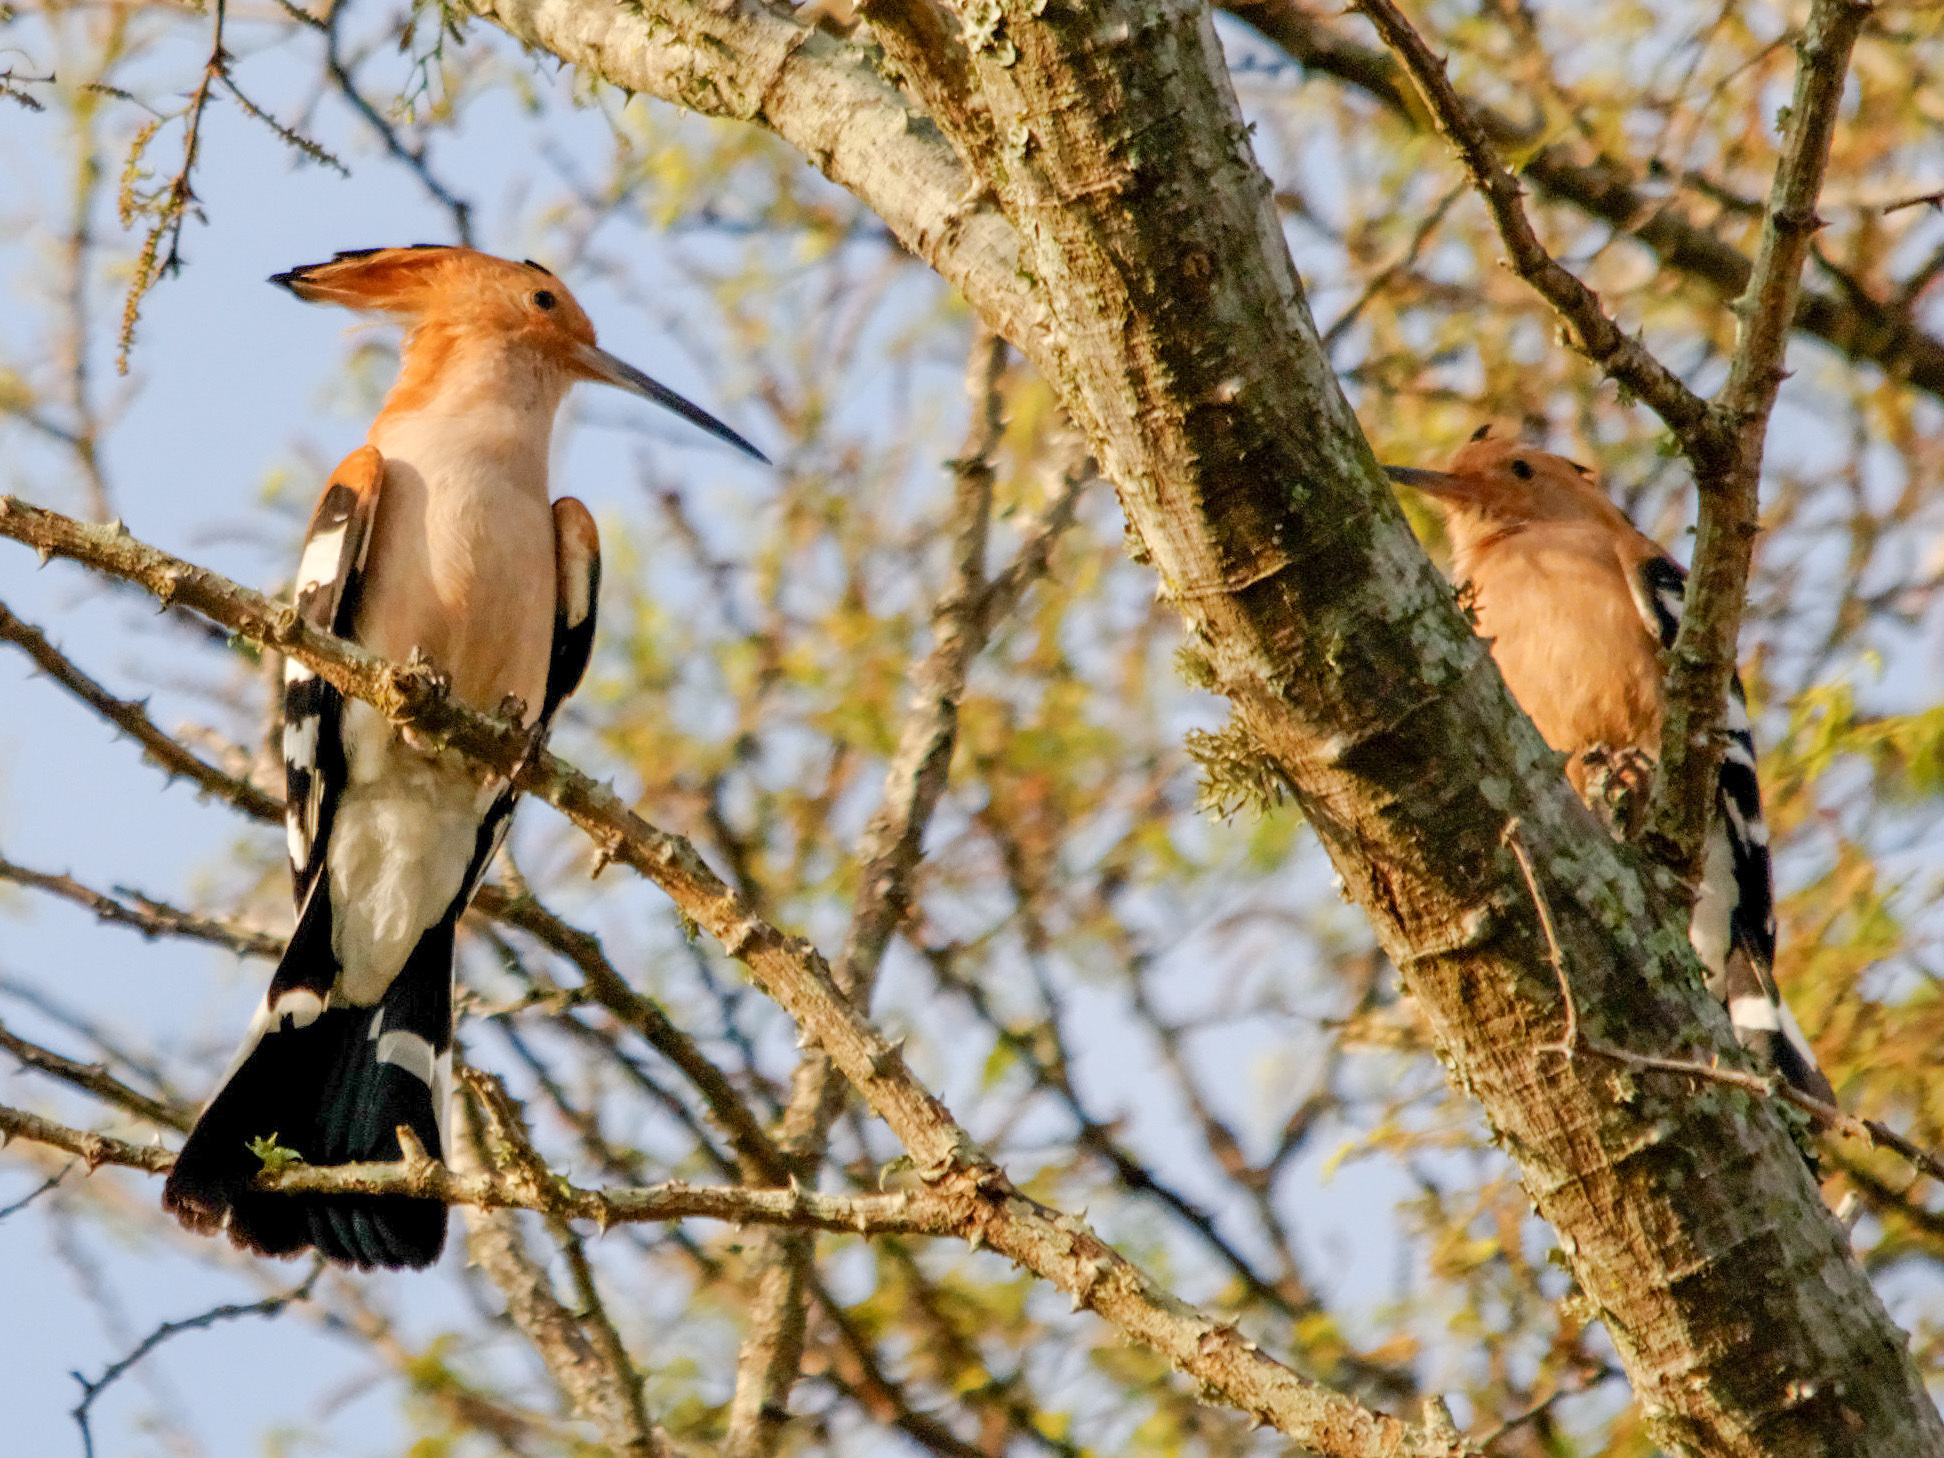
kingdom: Animalia
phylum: Chordata
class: Aves
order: Bucerotiformes
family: Upupidae
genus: Upupa
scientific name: Upupa marginata
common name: Madagascar hoopoe
